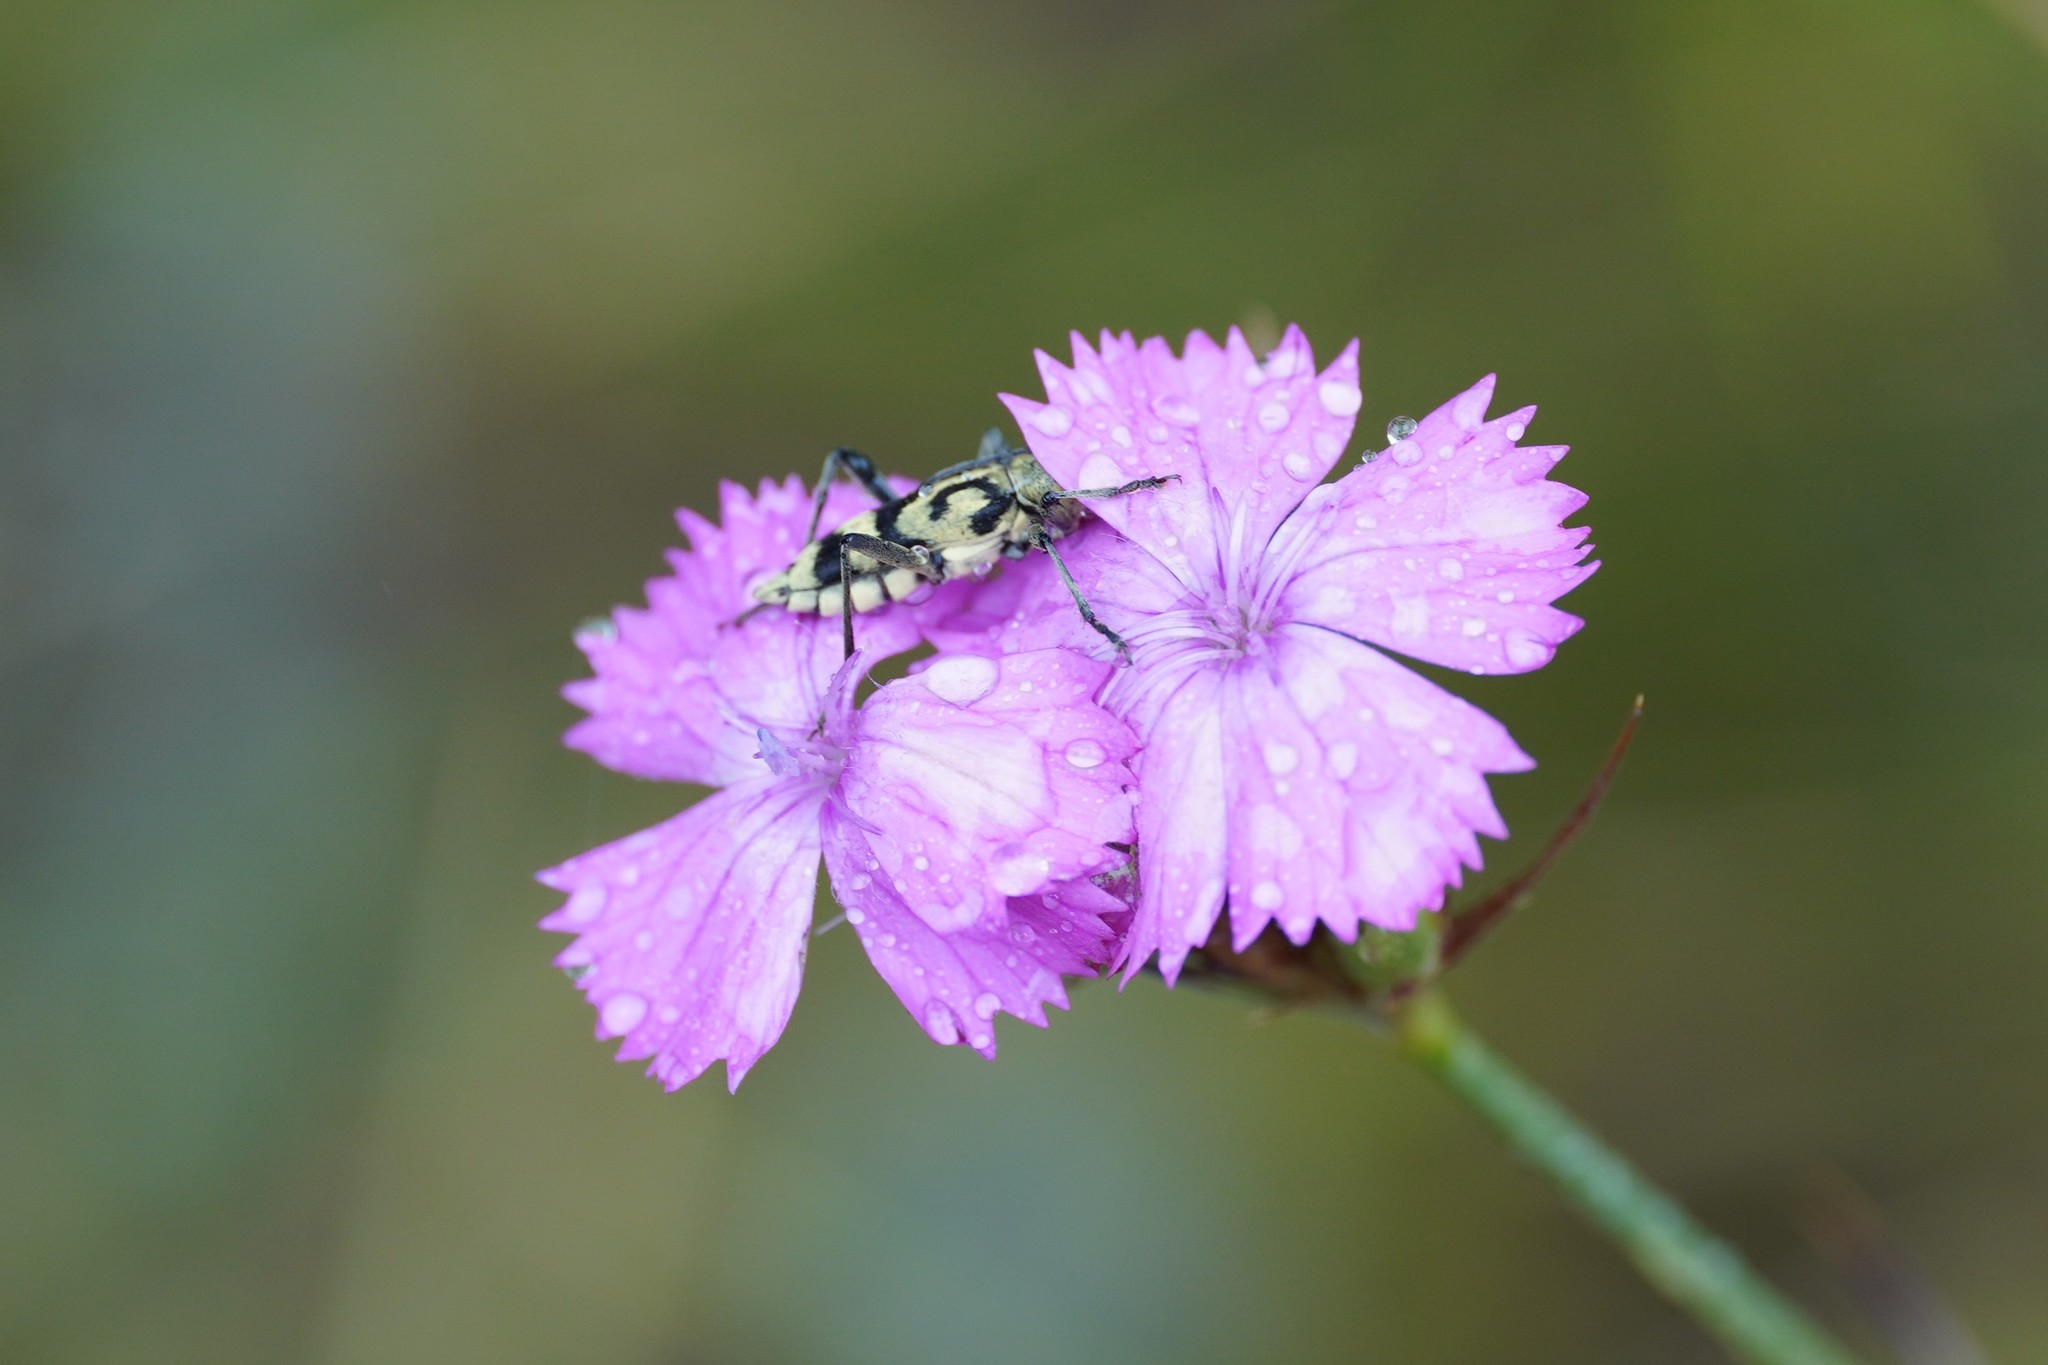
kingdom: Animalia
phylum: Arthropoda
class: Insecta
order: Coleoptera
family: Cerambycidae
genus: Chlorophorus
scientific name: Chlorophorus varius
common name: Grape wood borer
